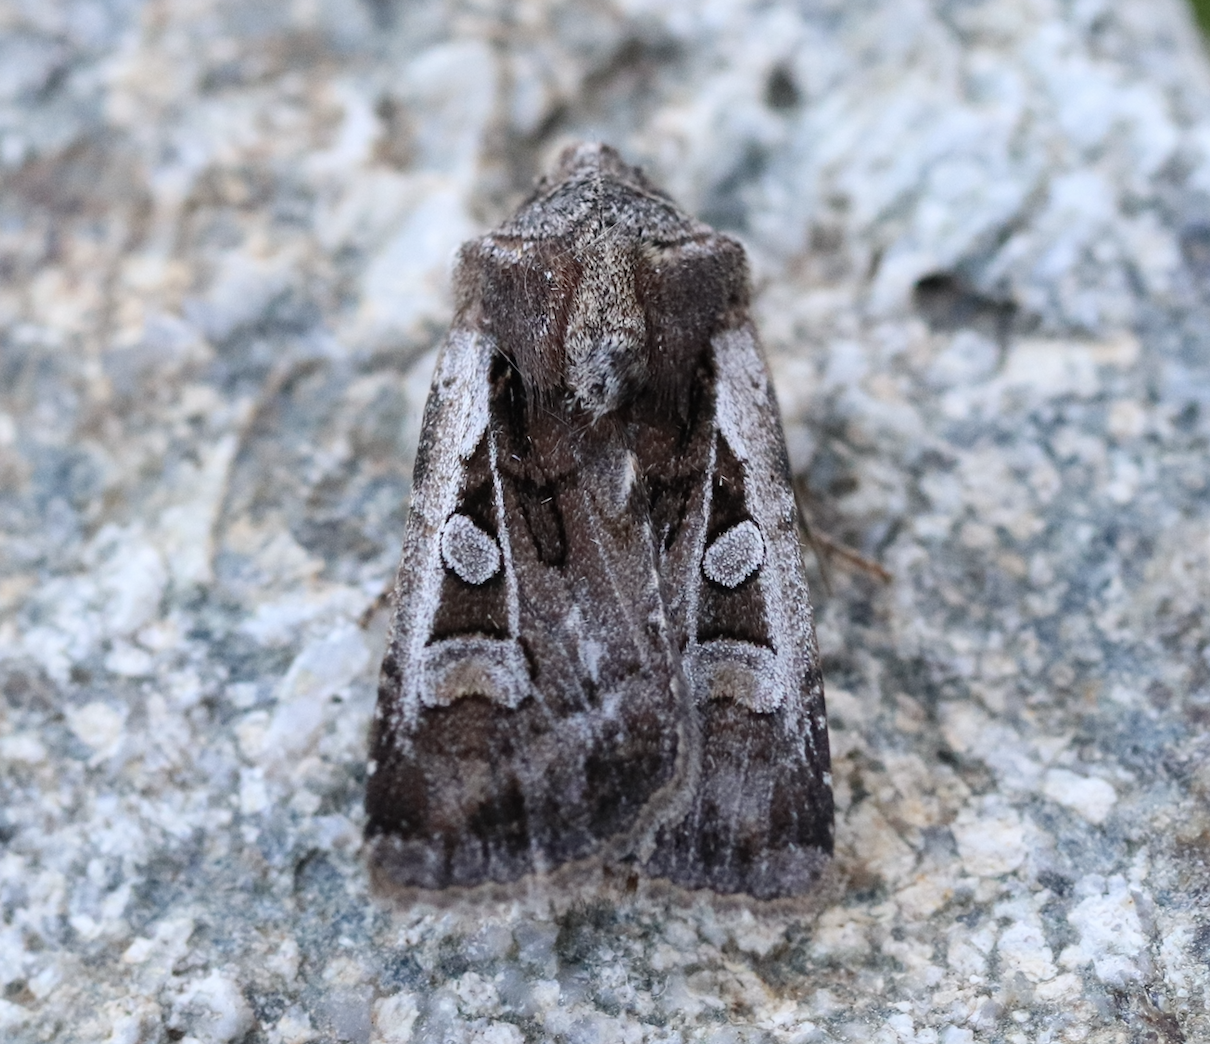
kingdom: Animalia
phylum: Arthropoda
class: Insecta
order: Lepidoptera
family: Noctuidae
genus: Euxoa
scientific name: Euxoa vitta
